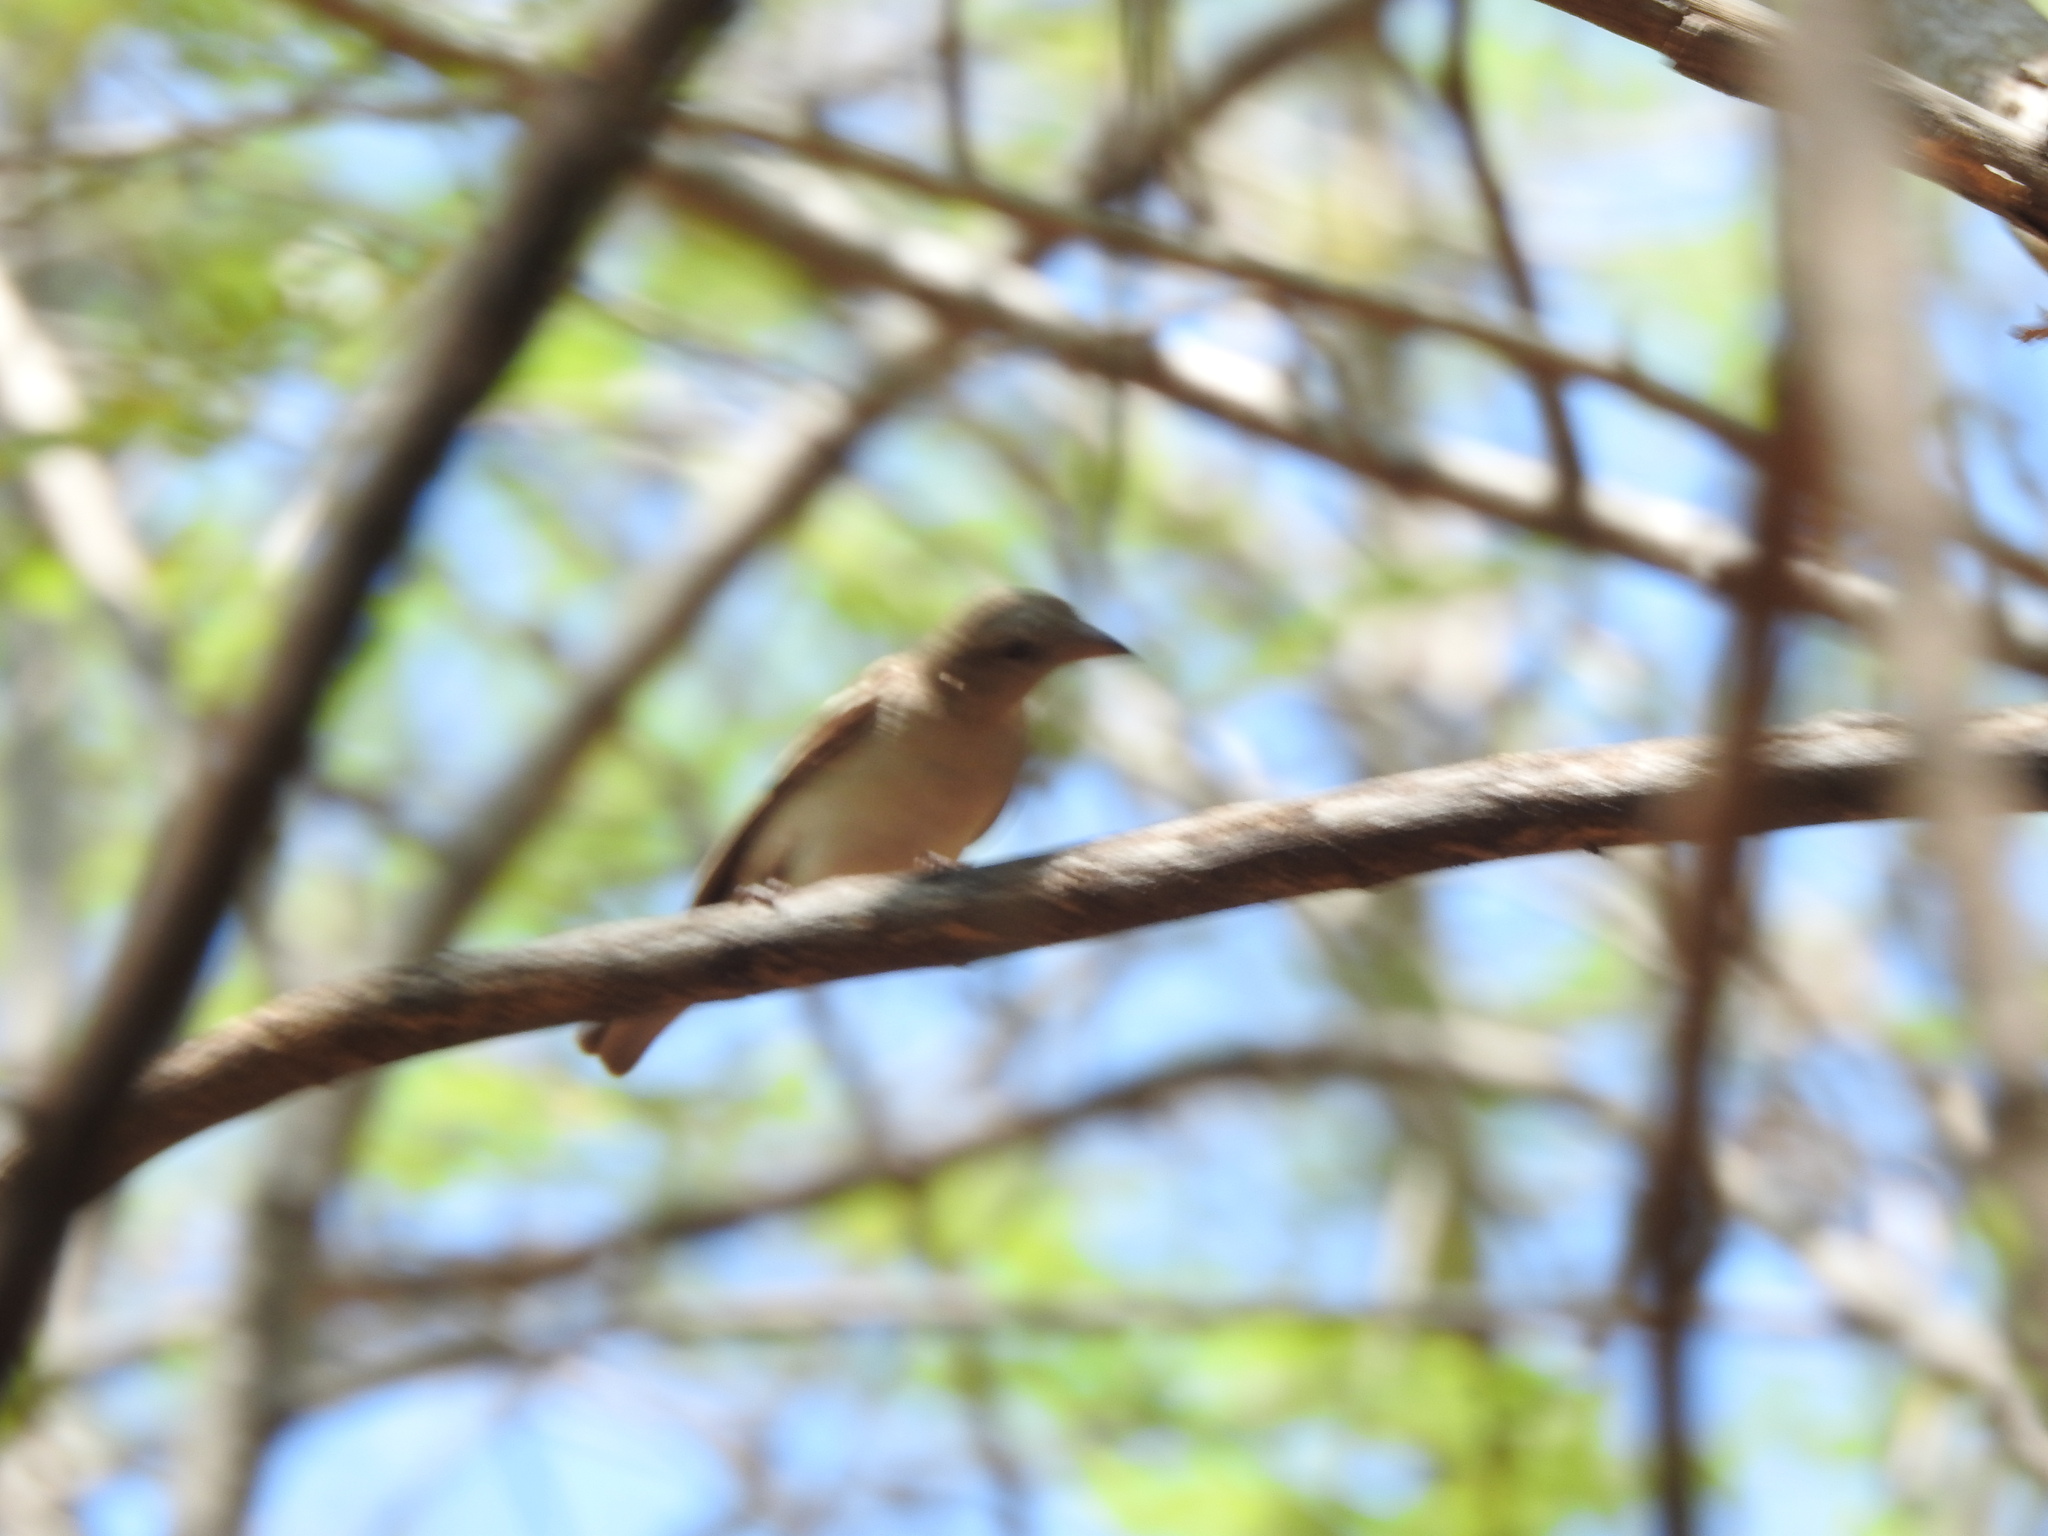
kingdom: Animalia
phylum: Chordata
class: Aves
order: Passeriformes
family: Passeridae
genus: Gymnoris
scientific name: Gymnoris xanthocollis
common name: Yellow-throated sparrow
